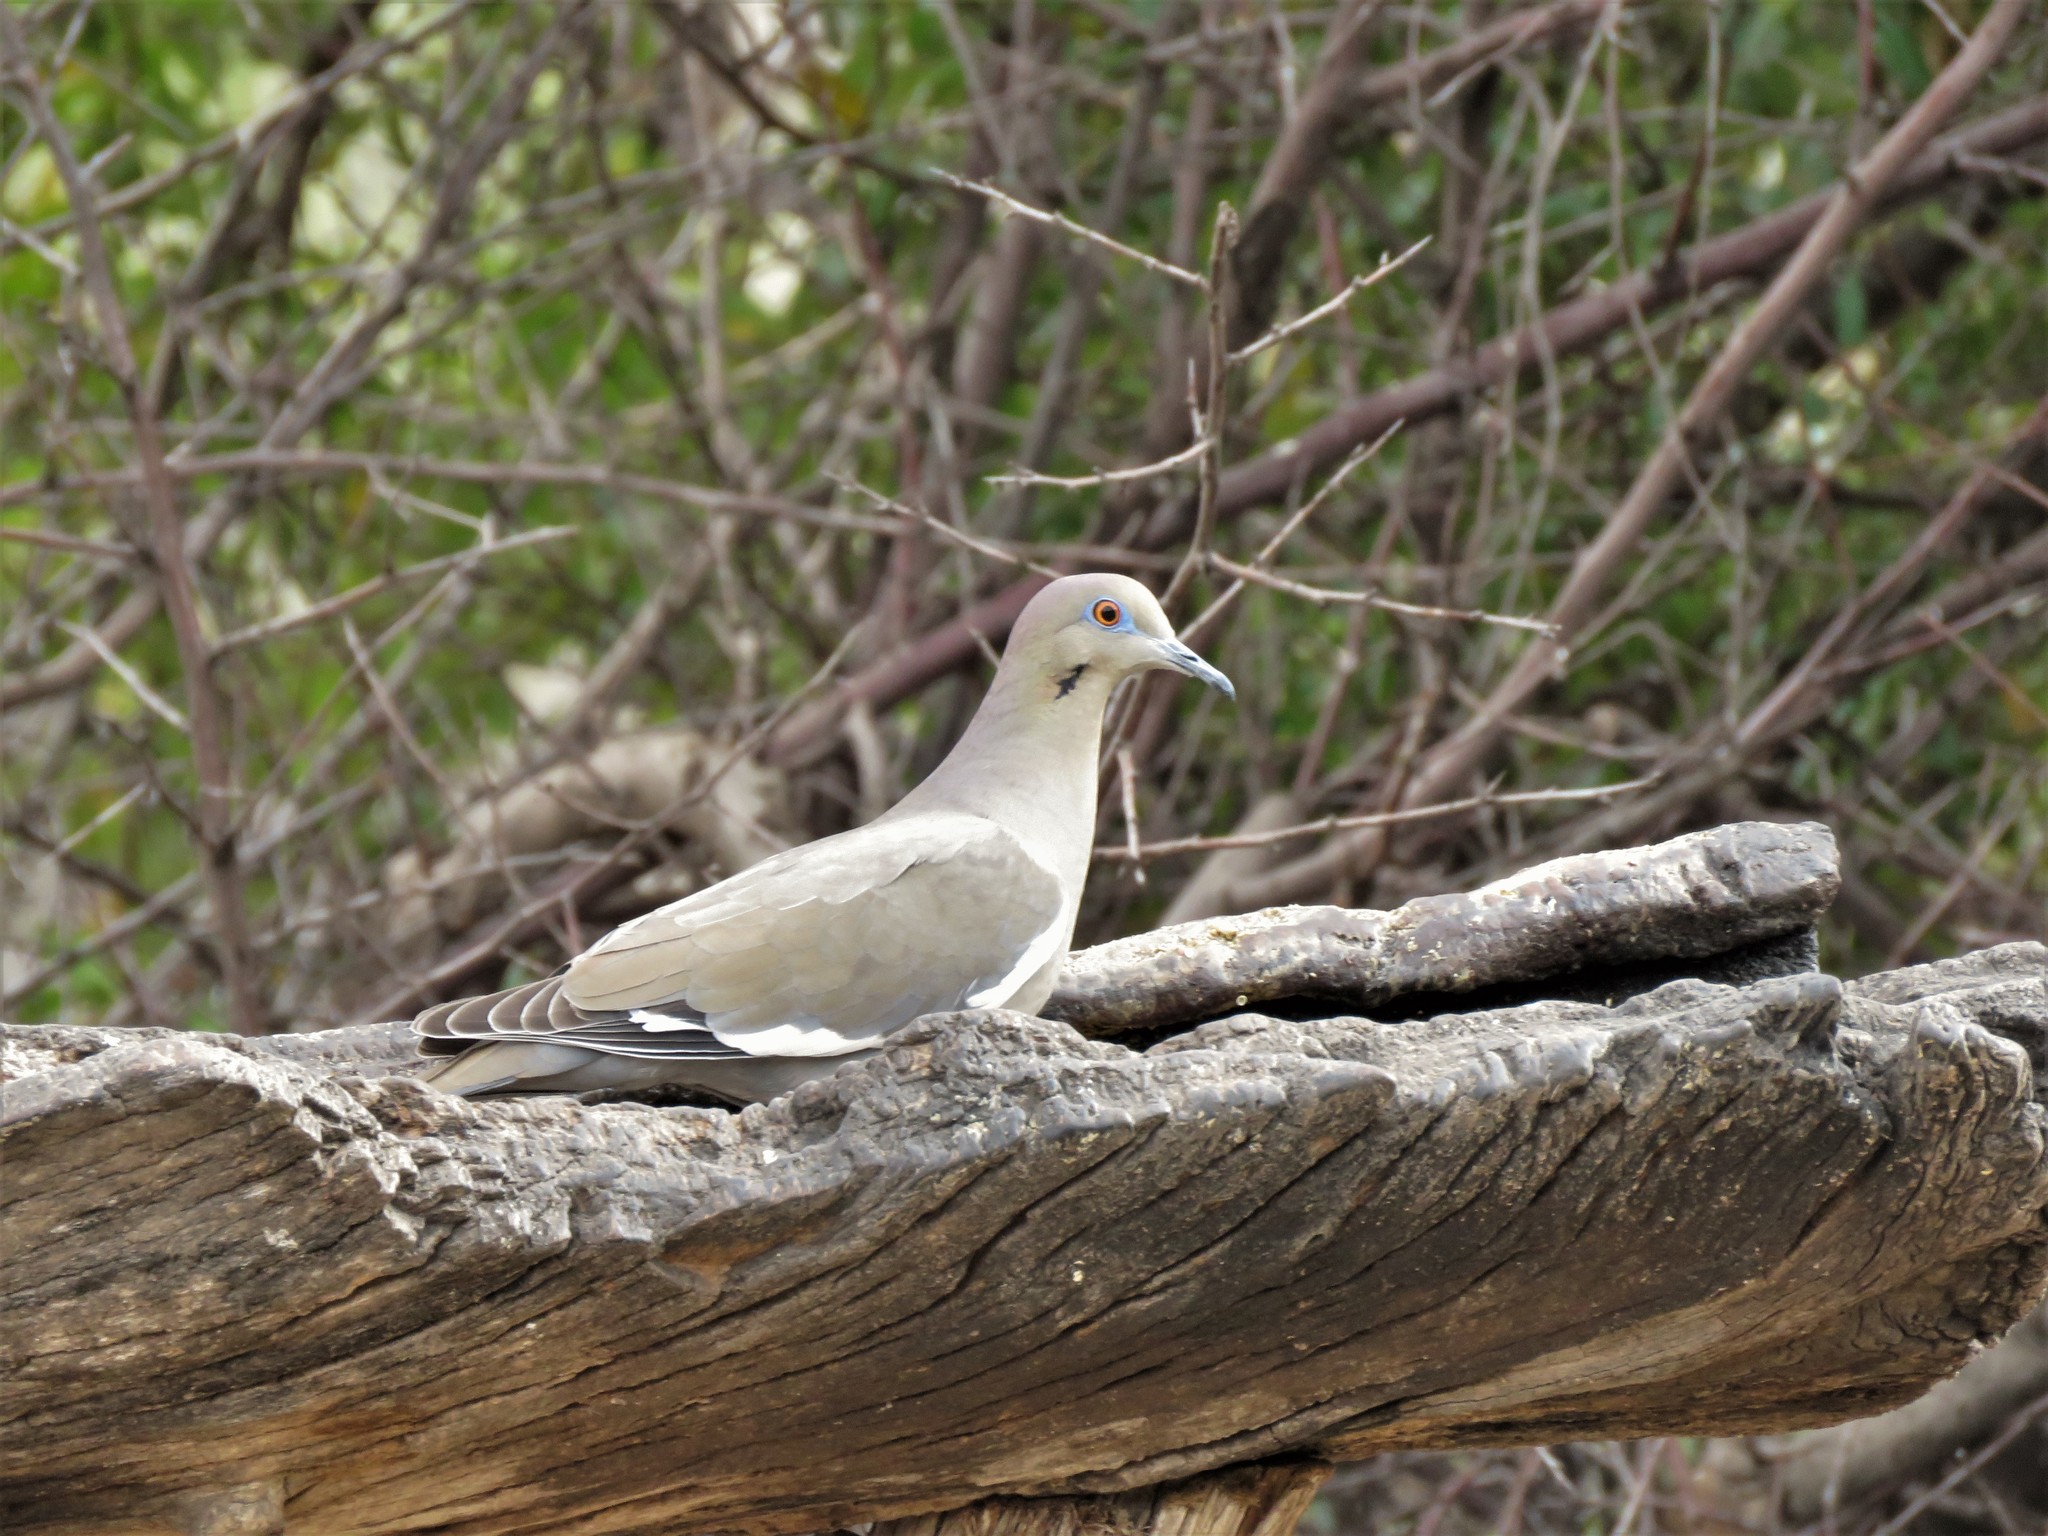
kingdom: Animalia
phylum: Chordata
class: Aves
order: Columbiformes
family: Columbidae
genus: Zenaida
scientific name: Zenaida asiatica
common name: White-winged dove
